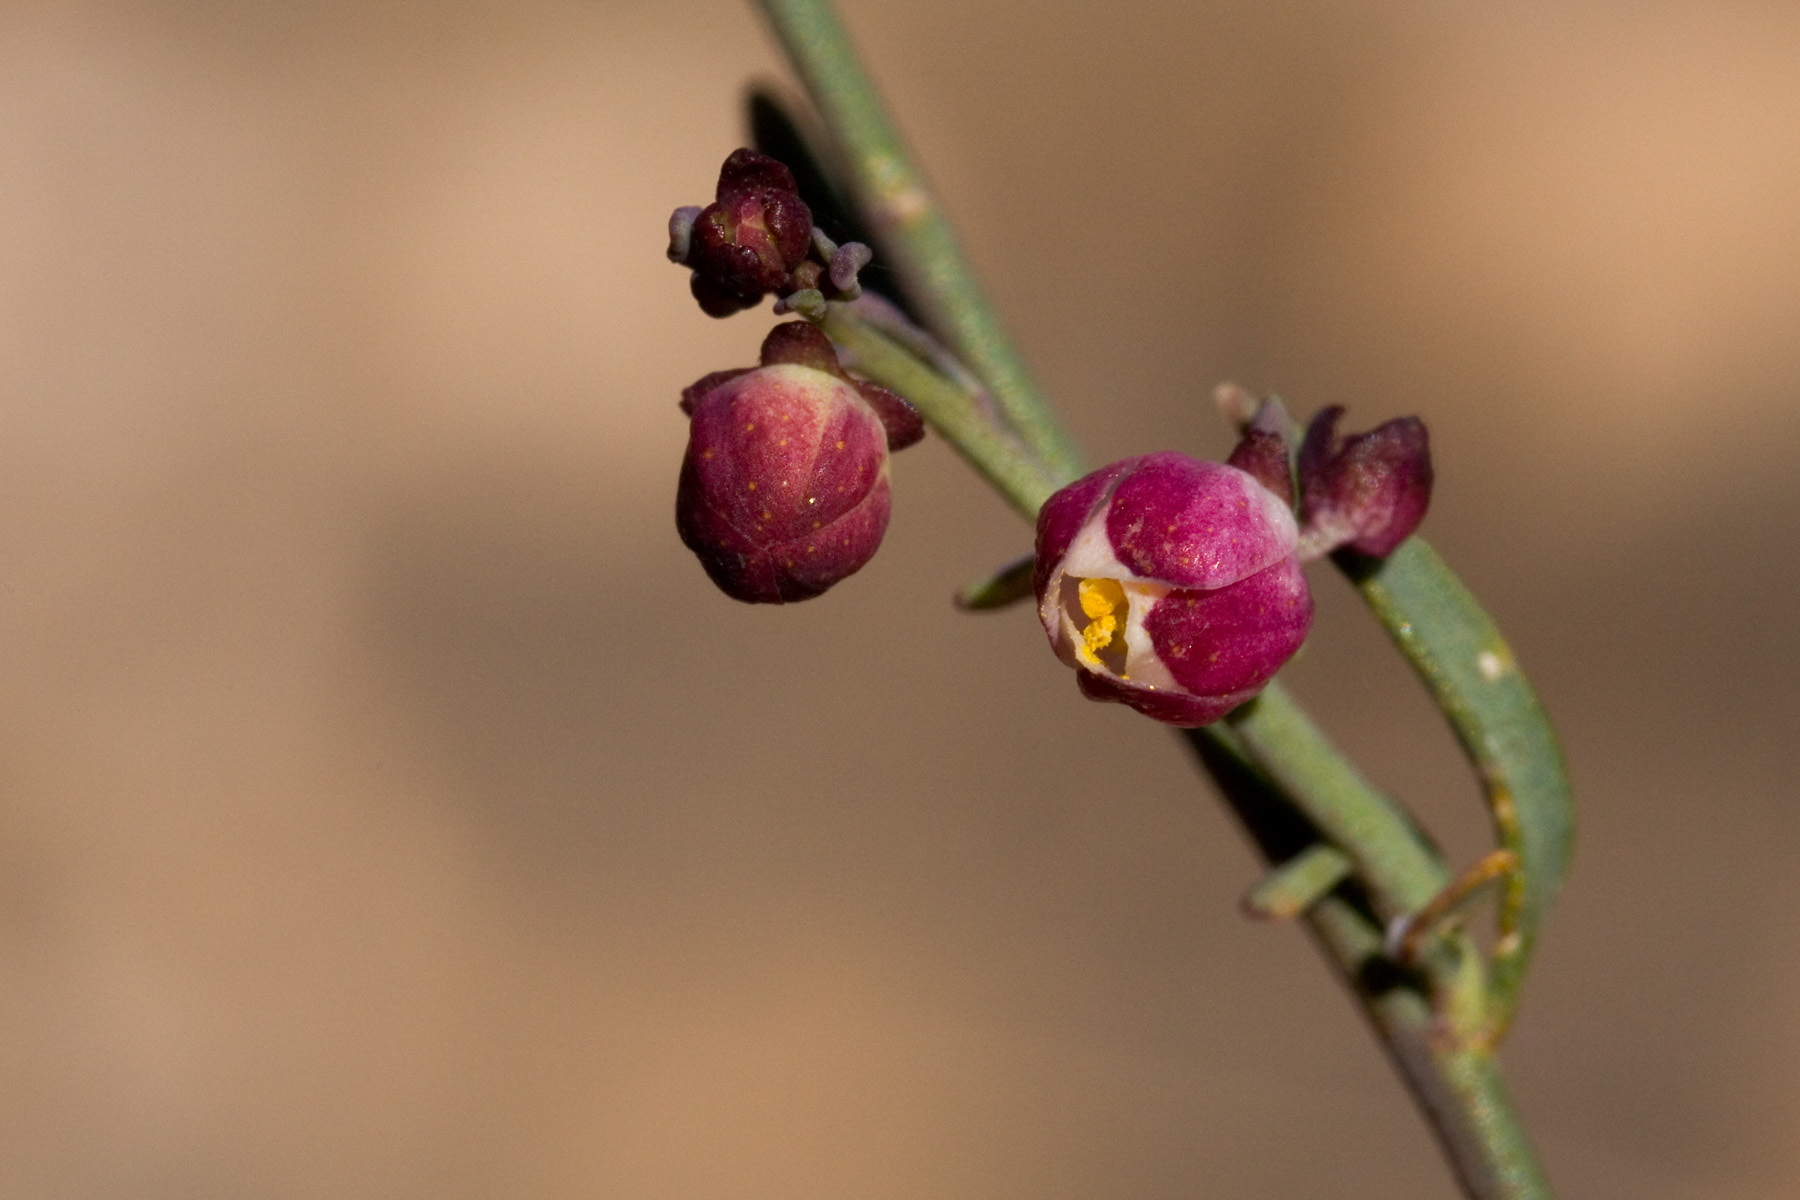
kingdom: Plantae
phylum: Tracheophyta
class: Magnoliopsida
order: Sapindales
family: Rutaceae
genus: Thamnosma
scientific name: Thamnosma texana
